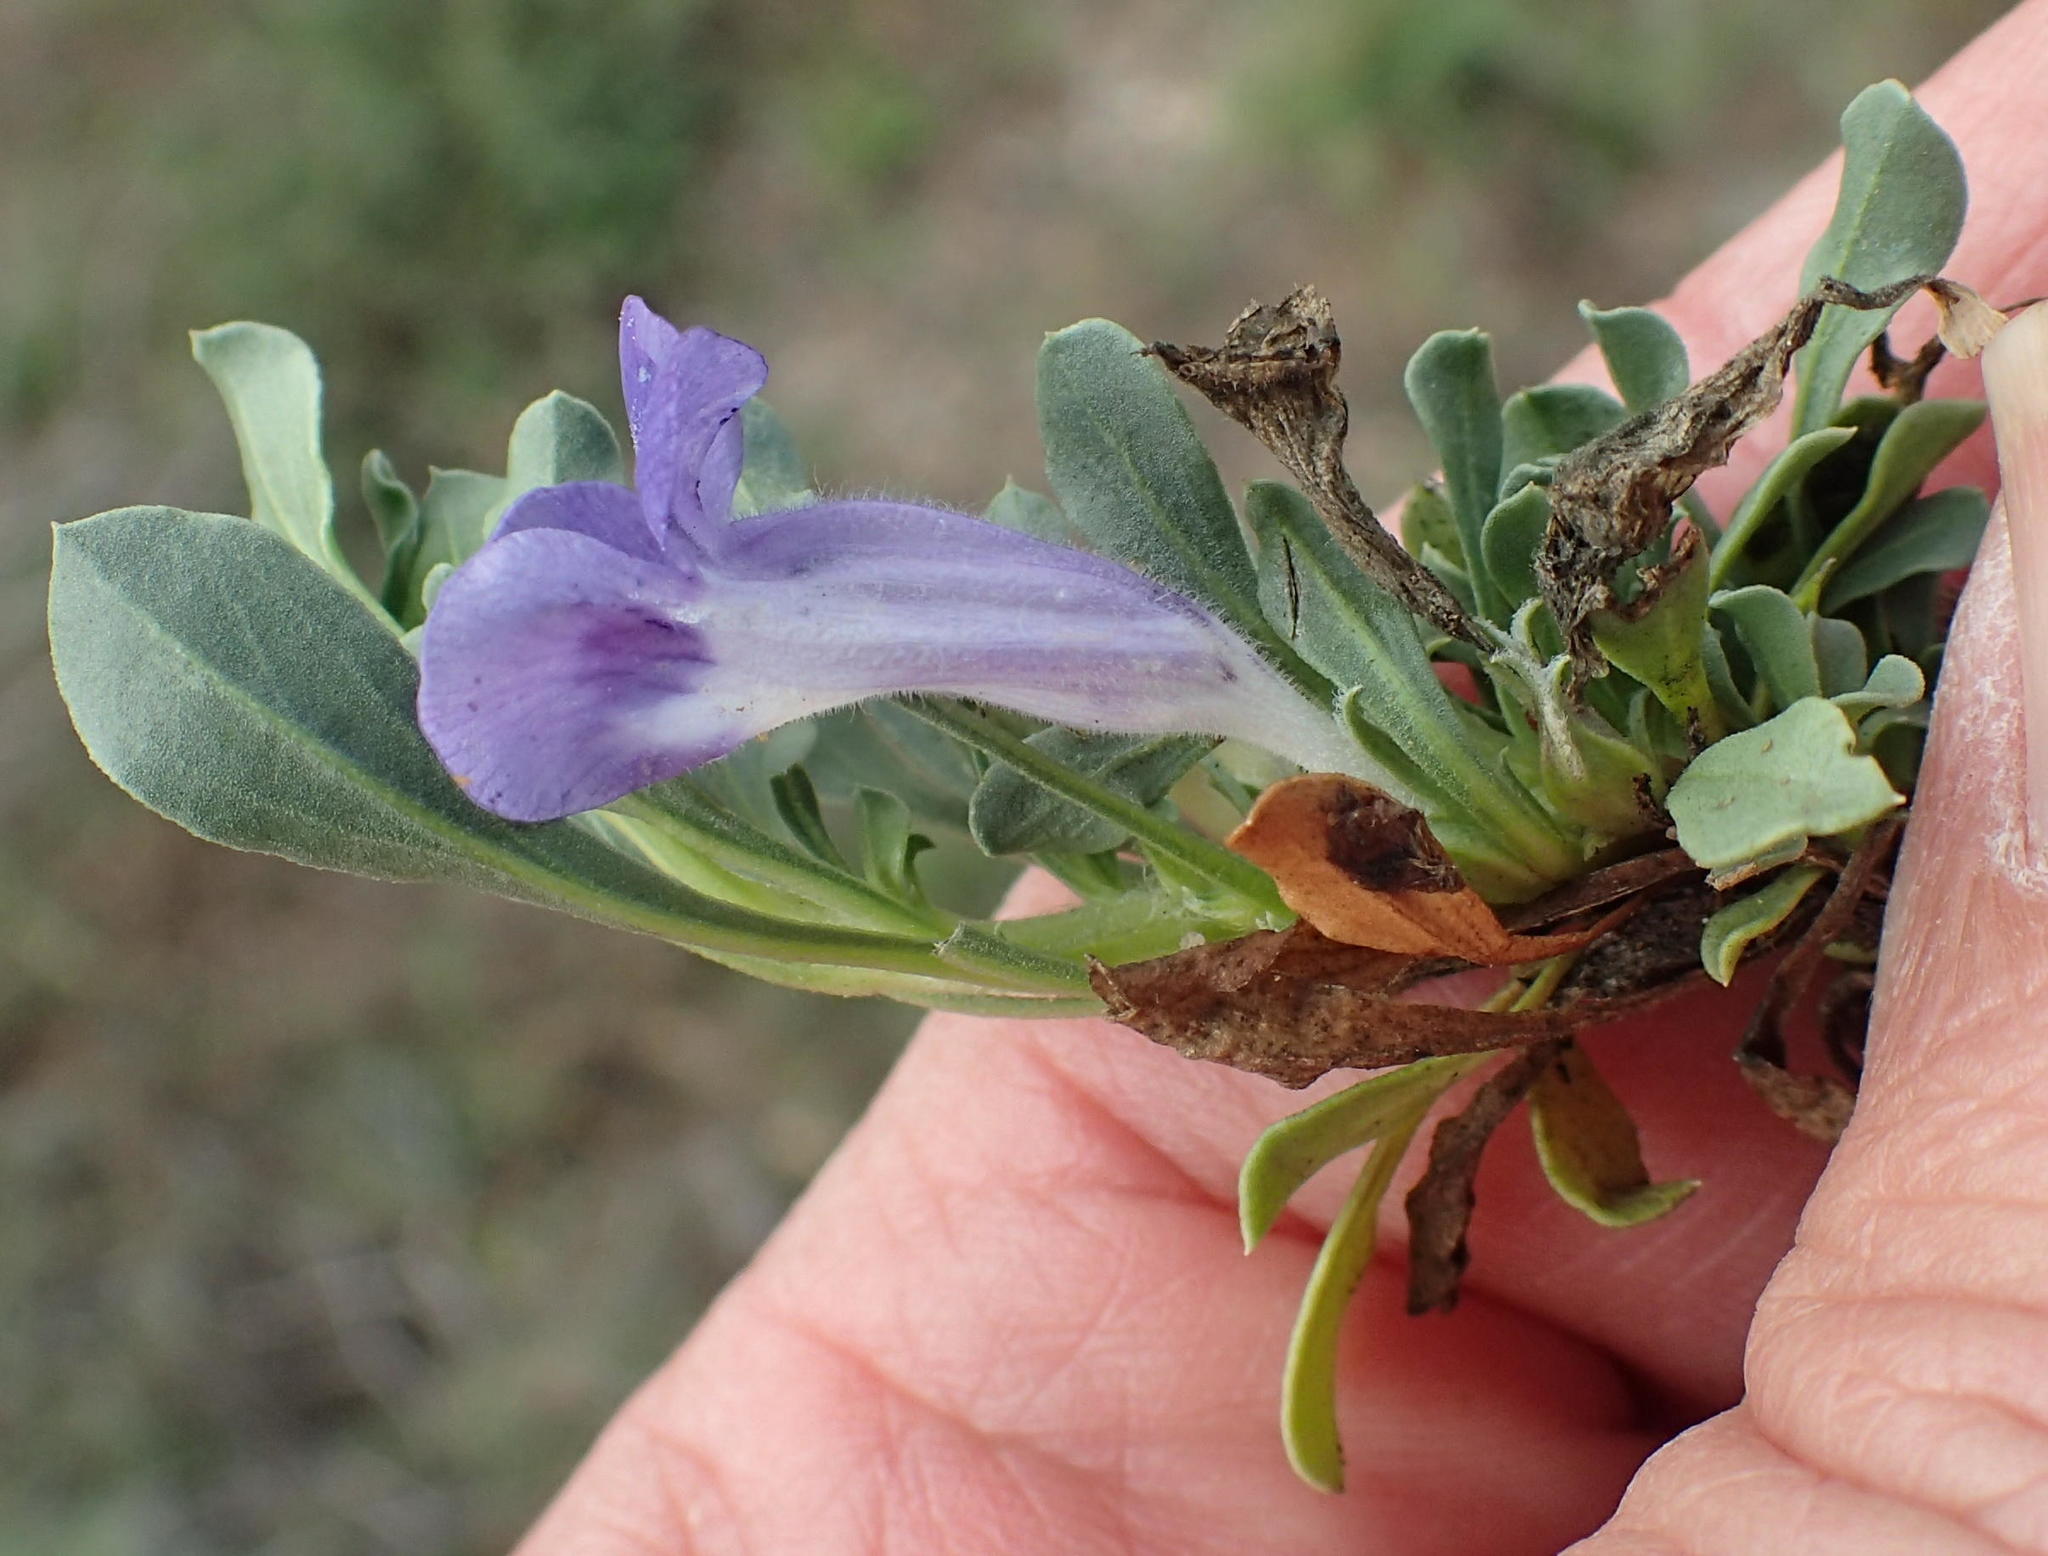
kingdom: Plantae
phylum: Tracheophyta
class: Magnoliopsida
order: Lamiales
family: Scrophulariaceae
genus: Aptosimum
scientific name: Aptosimum procumbens
